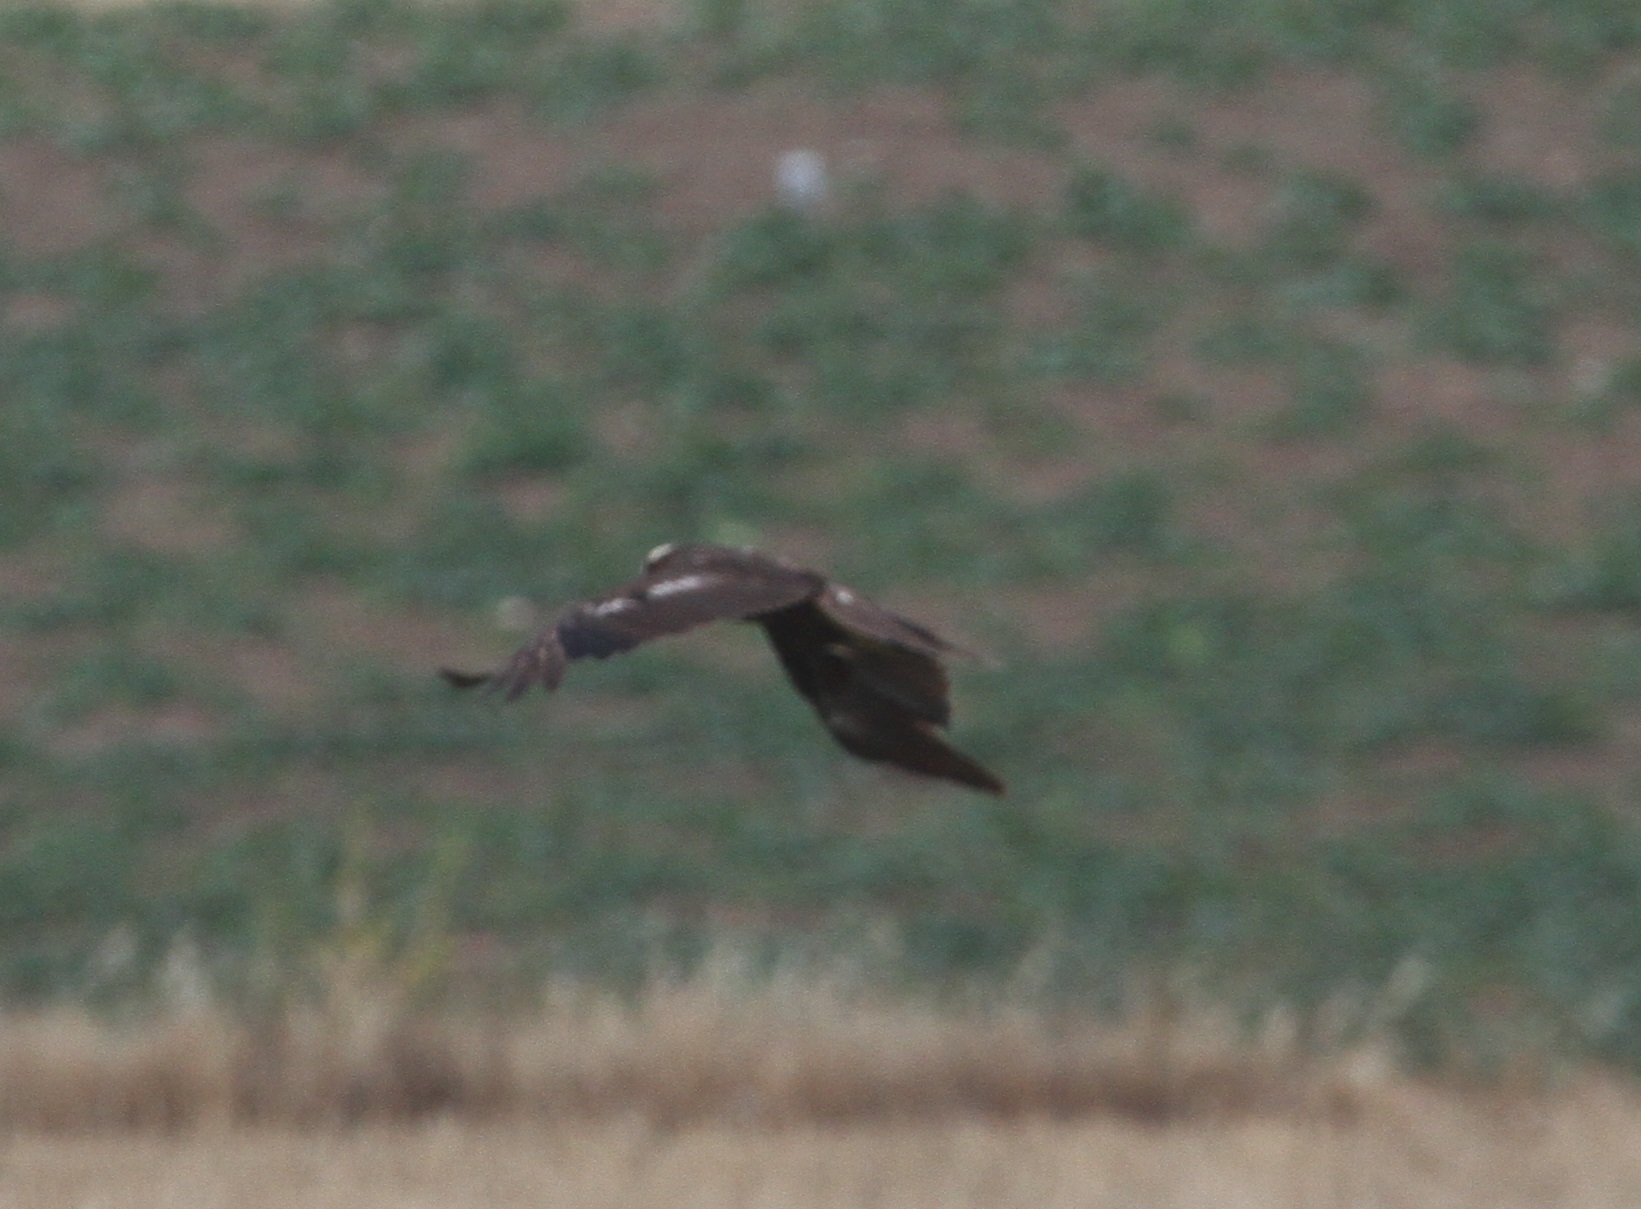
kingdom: Animalia
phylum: Chordata
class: Aves
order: Accipitriformes
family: Accipitridae
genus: Circus
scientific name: Circus aeruginosus
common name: Western marsh harrier
